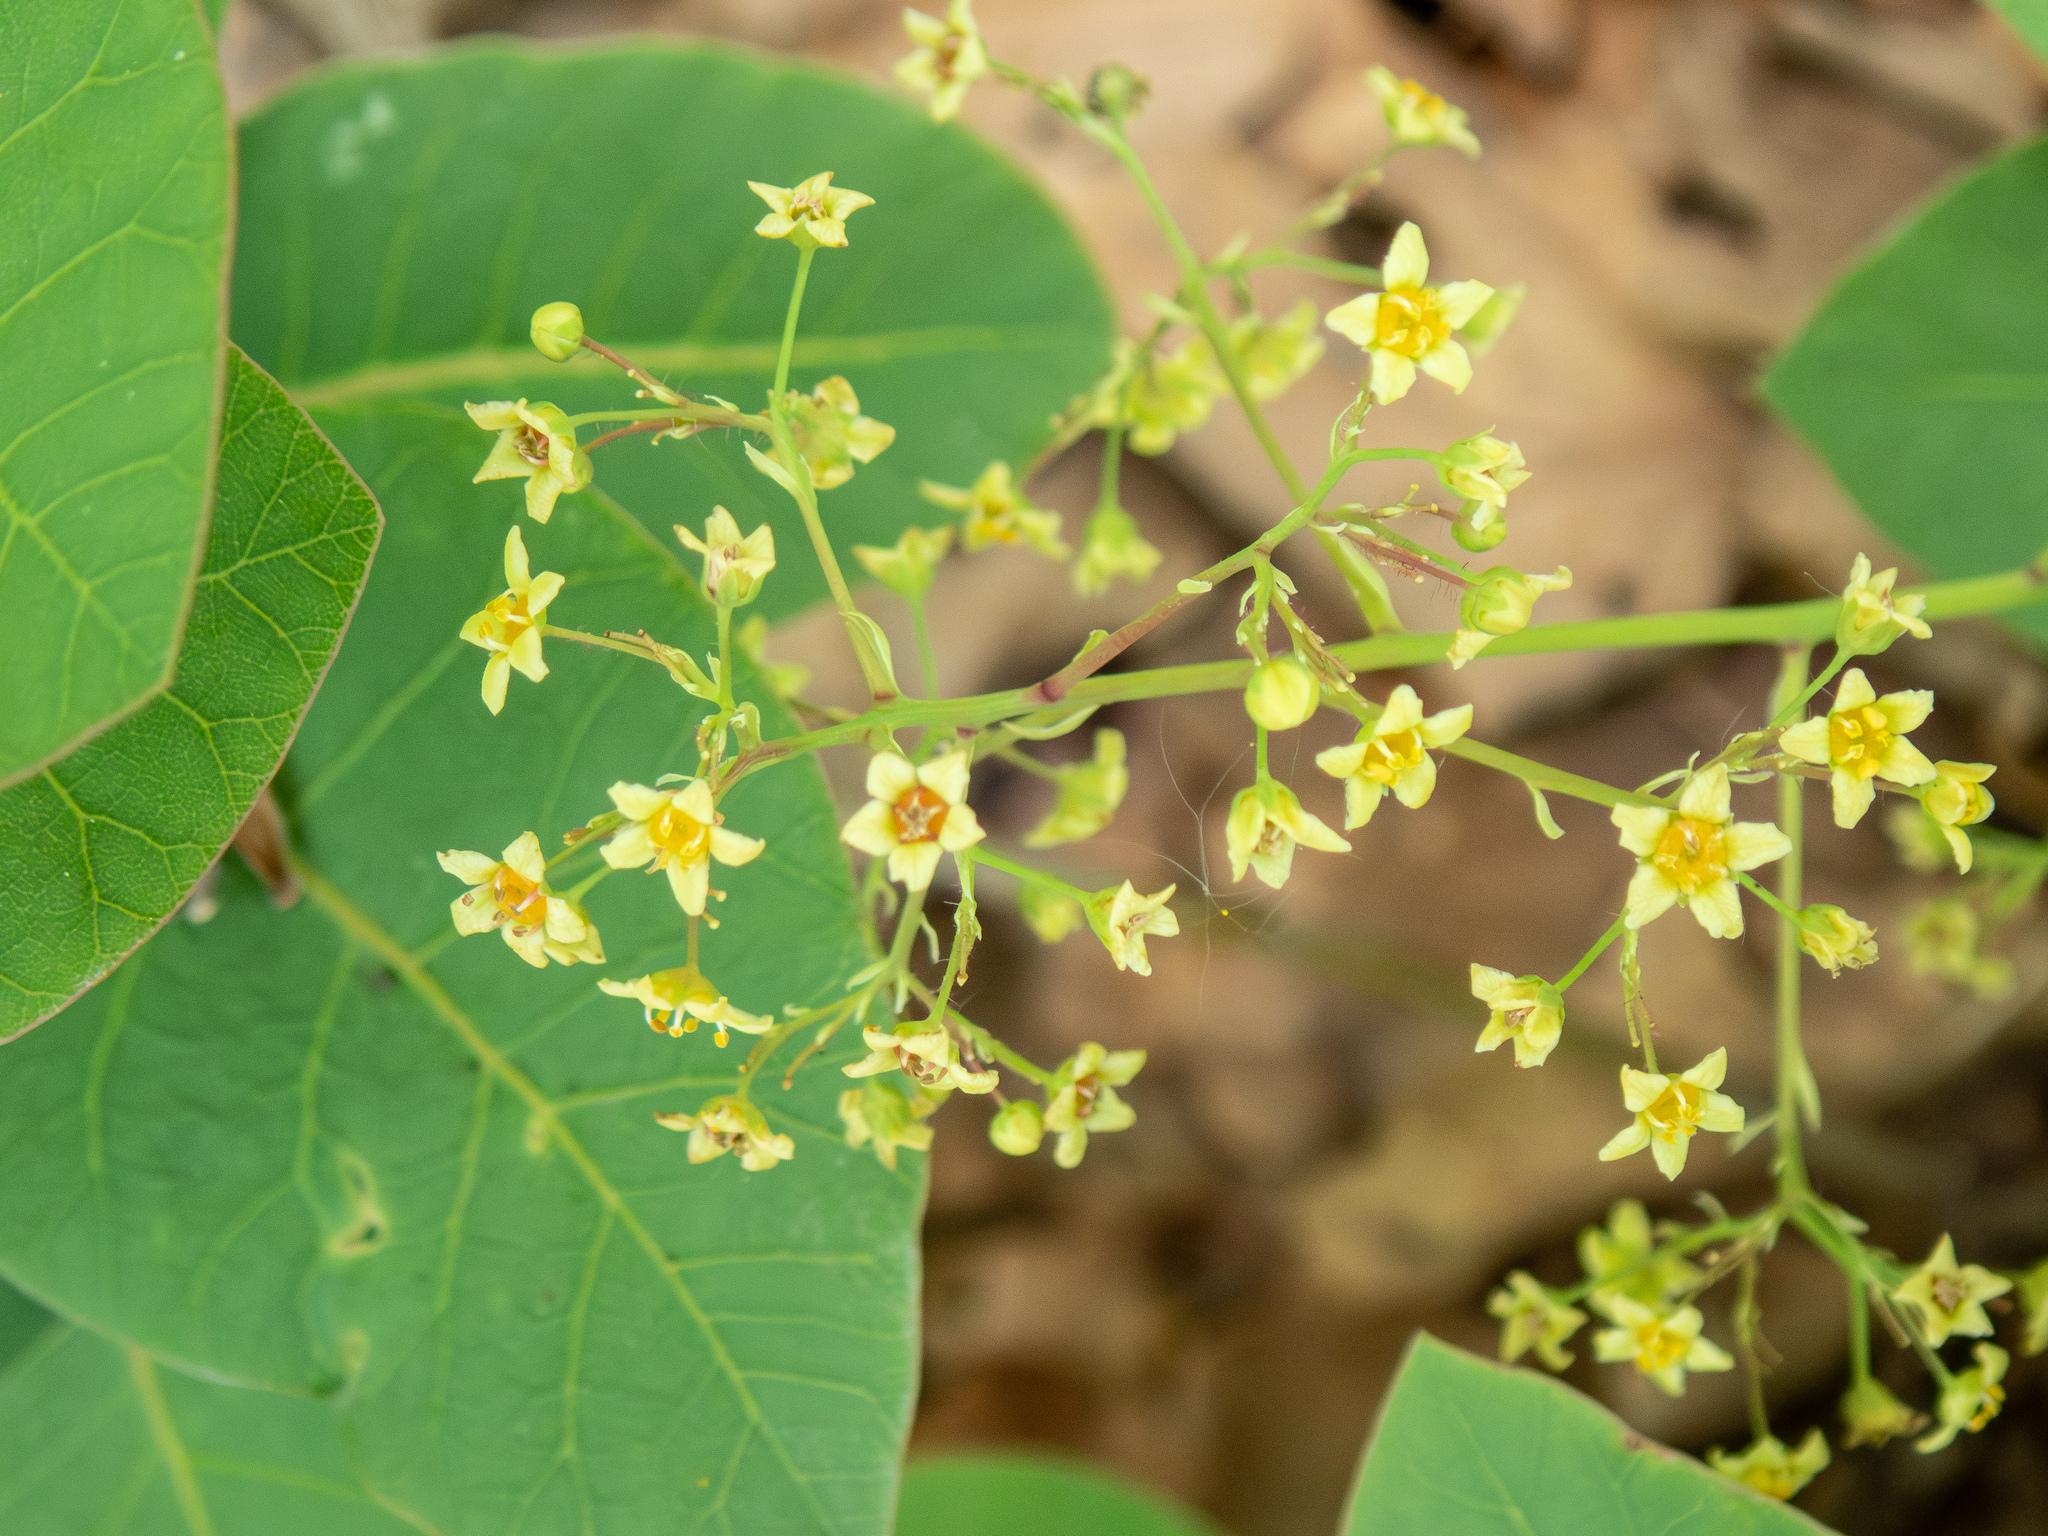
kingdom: Plantae
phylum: Tracheophyta
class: Magnoliopsida
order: Sapindales
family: Anacardiaceae
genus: Cotinus
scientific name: Cotinus coggygria
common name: Smoke-tree
